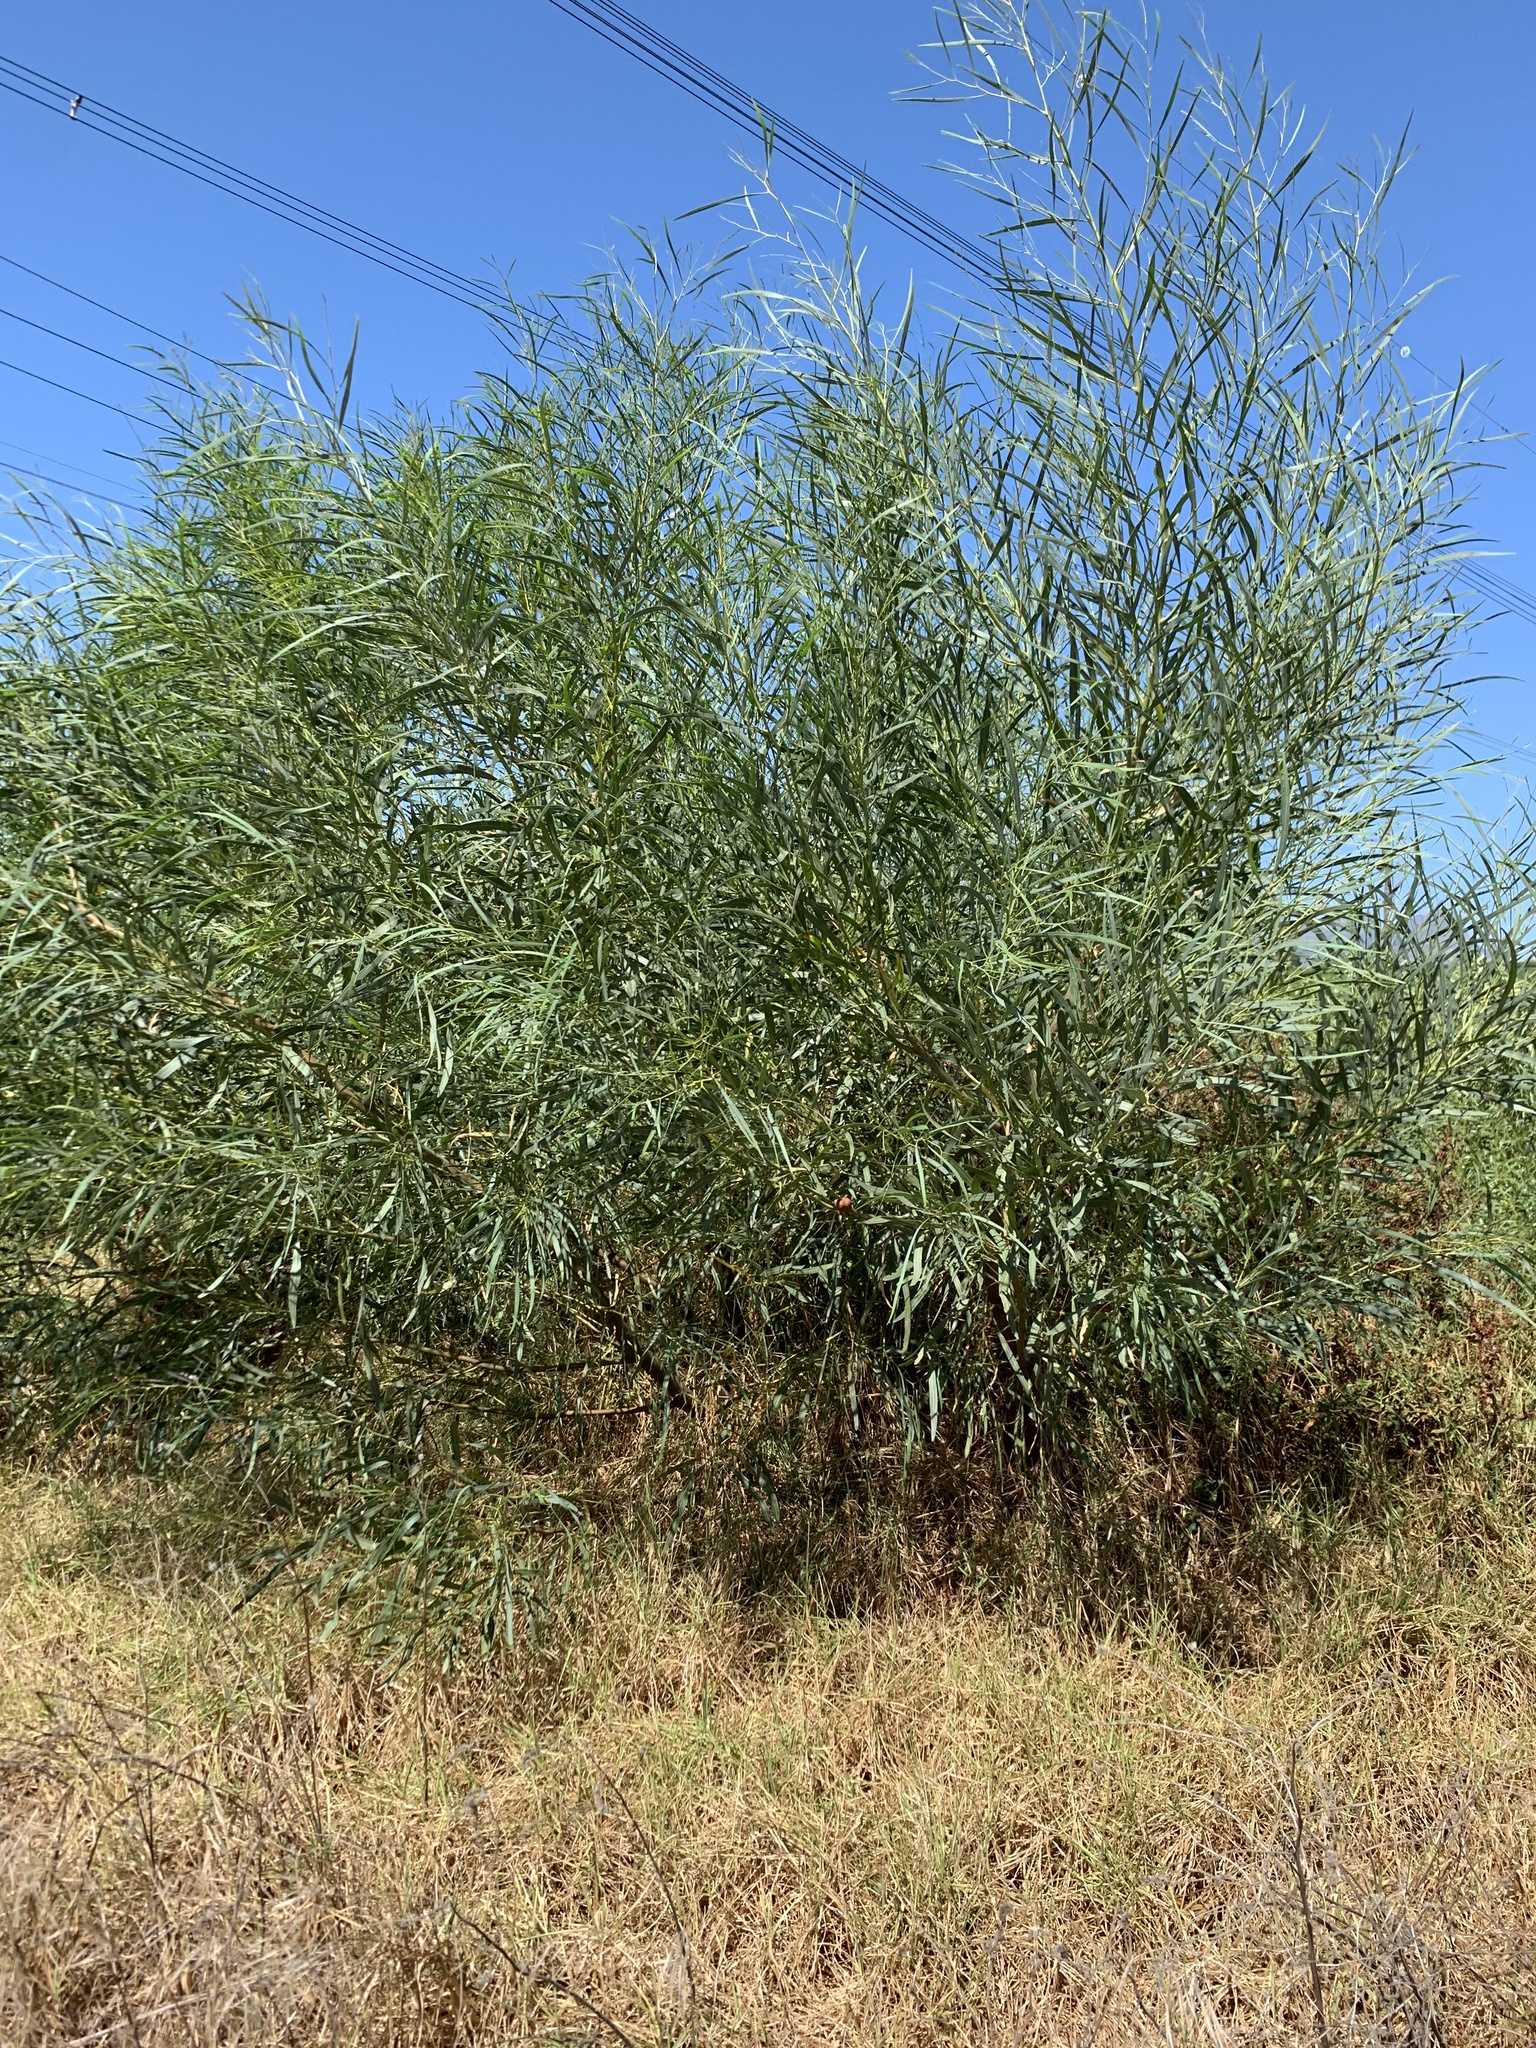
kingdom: Plantae
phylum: Tracheophyta
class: Magnoliopsida
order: Fabales
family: Fabaceae
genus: Acacia
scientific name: Acacia saligna
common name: Orange wattle
